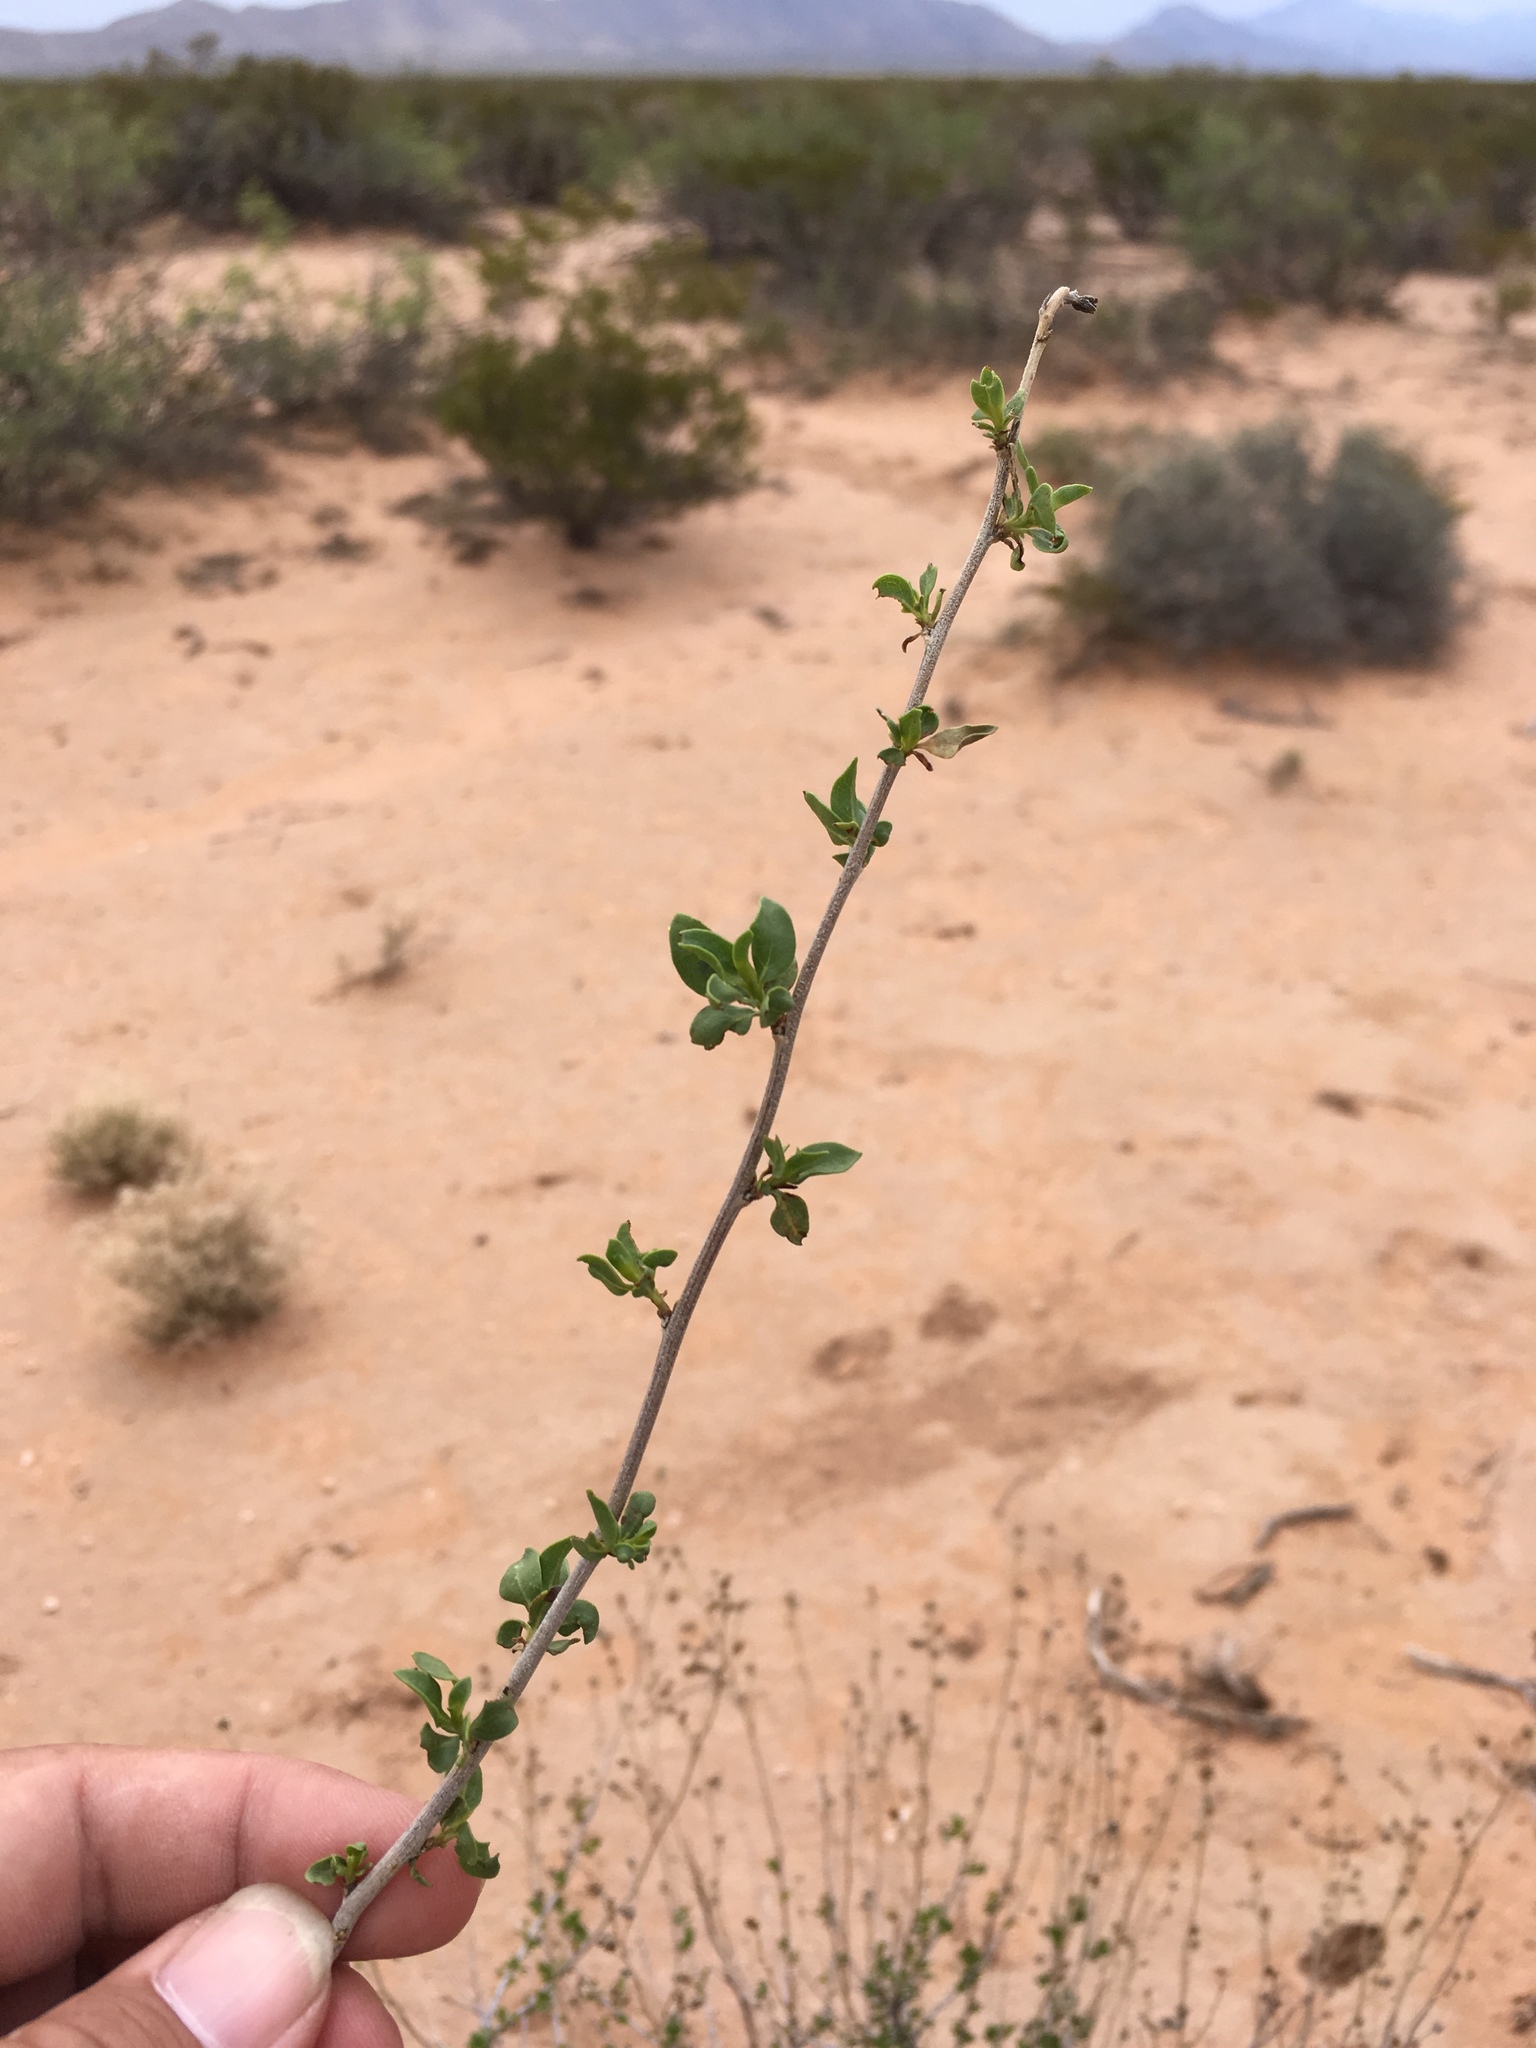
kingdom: Plantae
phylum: Tracheophyta
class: Magnoliopsida
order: Asterales
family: Asteraceae
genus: Flourensia
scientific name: Flourensia cernua
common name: Varnishbush
